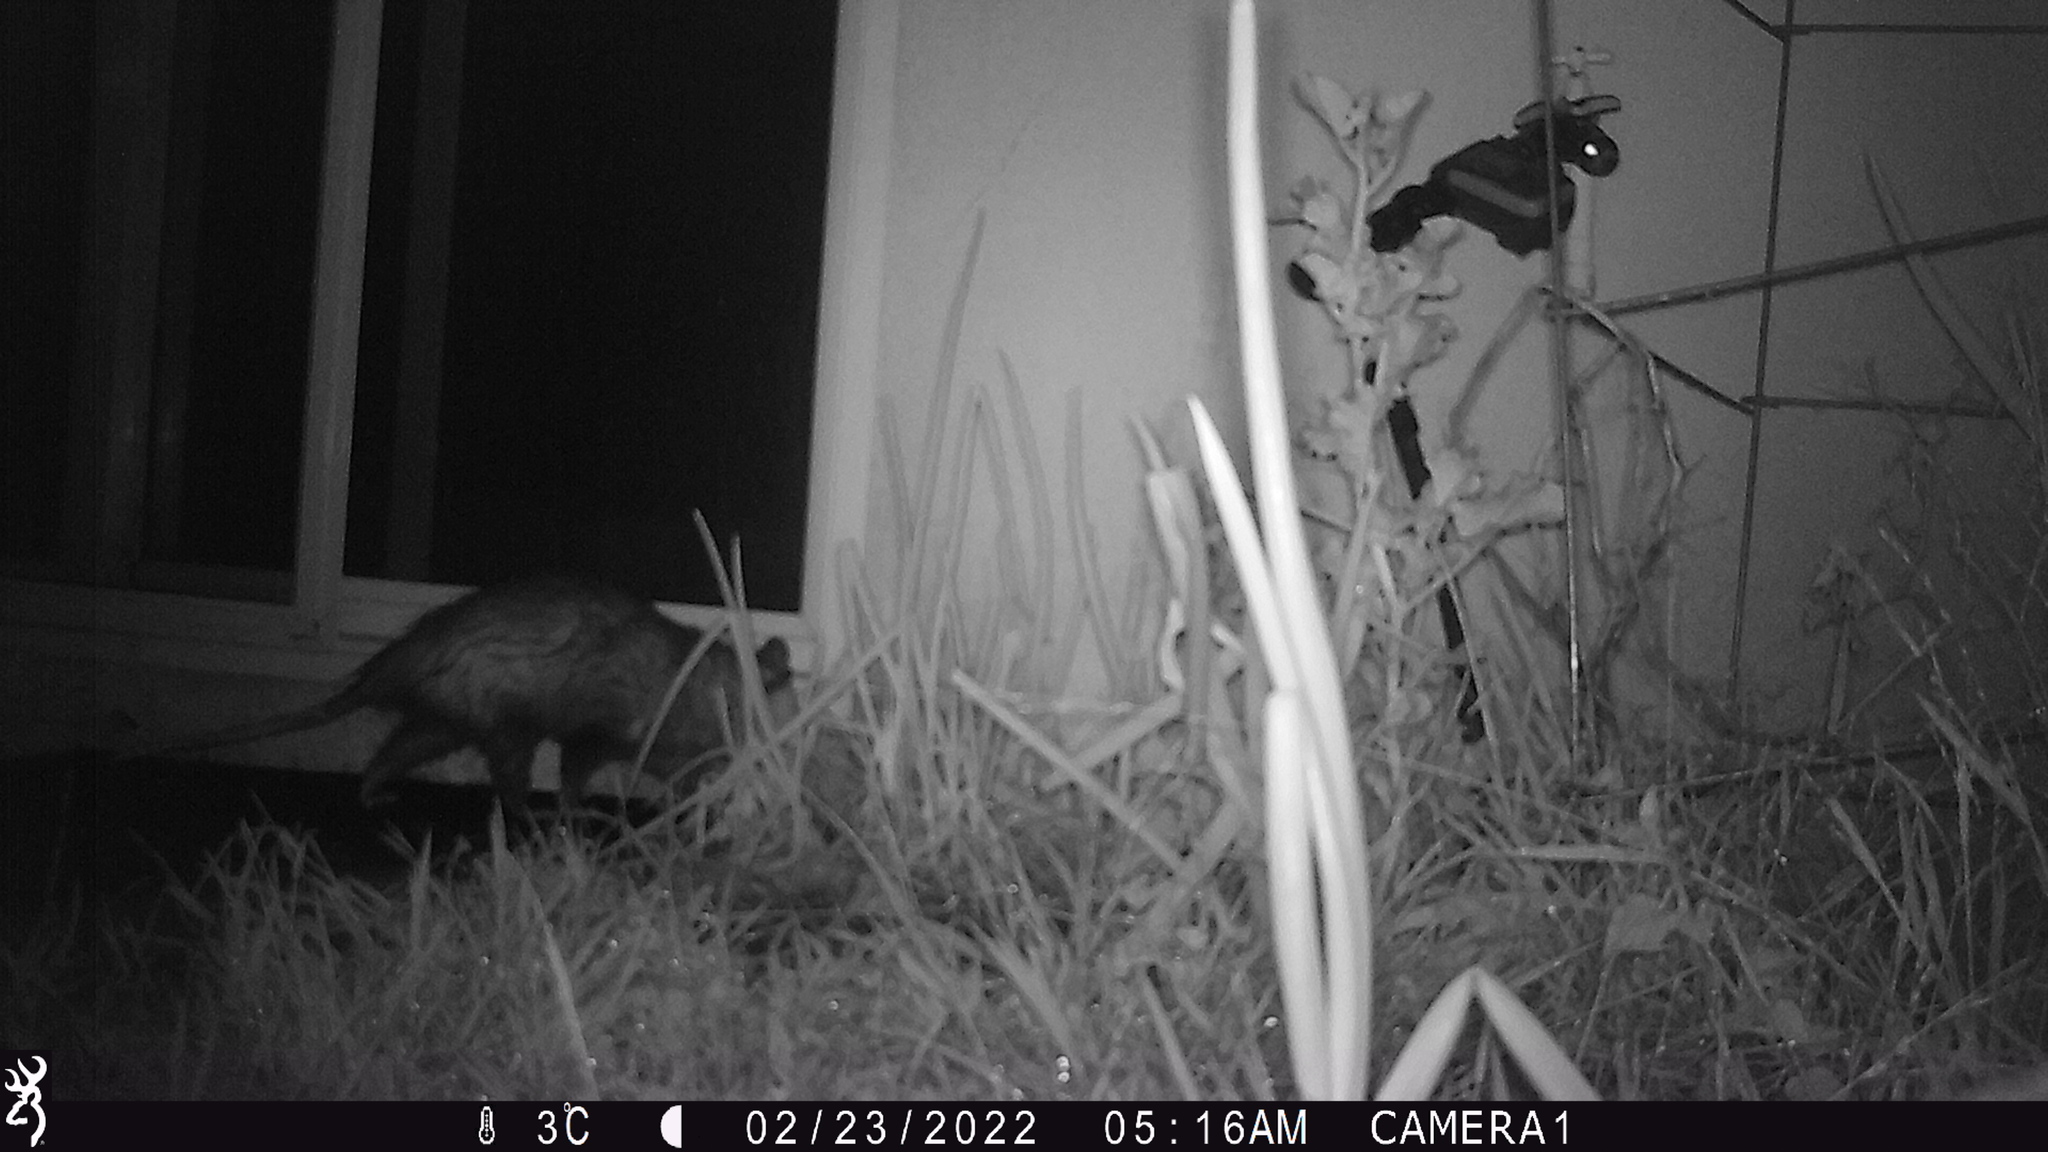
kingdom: Animalia
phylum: Chordata
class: Mammalia
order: Didelphimorphia
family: Didelphidae
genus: Didelphis
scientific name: Didelphis virginiana
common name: Virginia opossum
